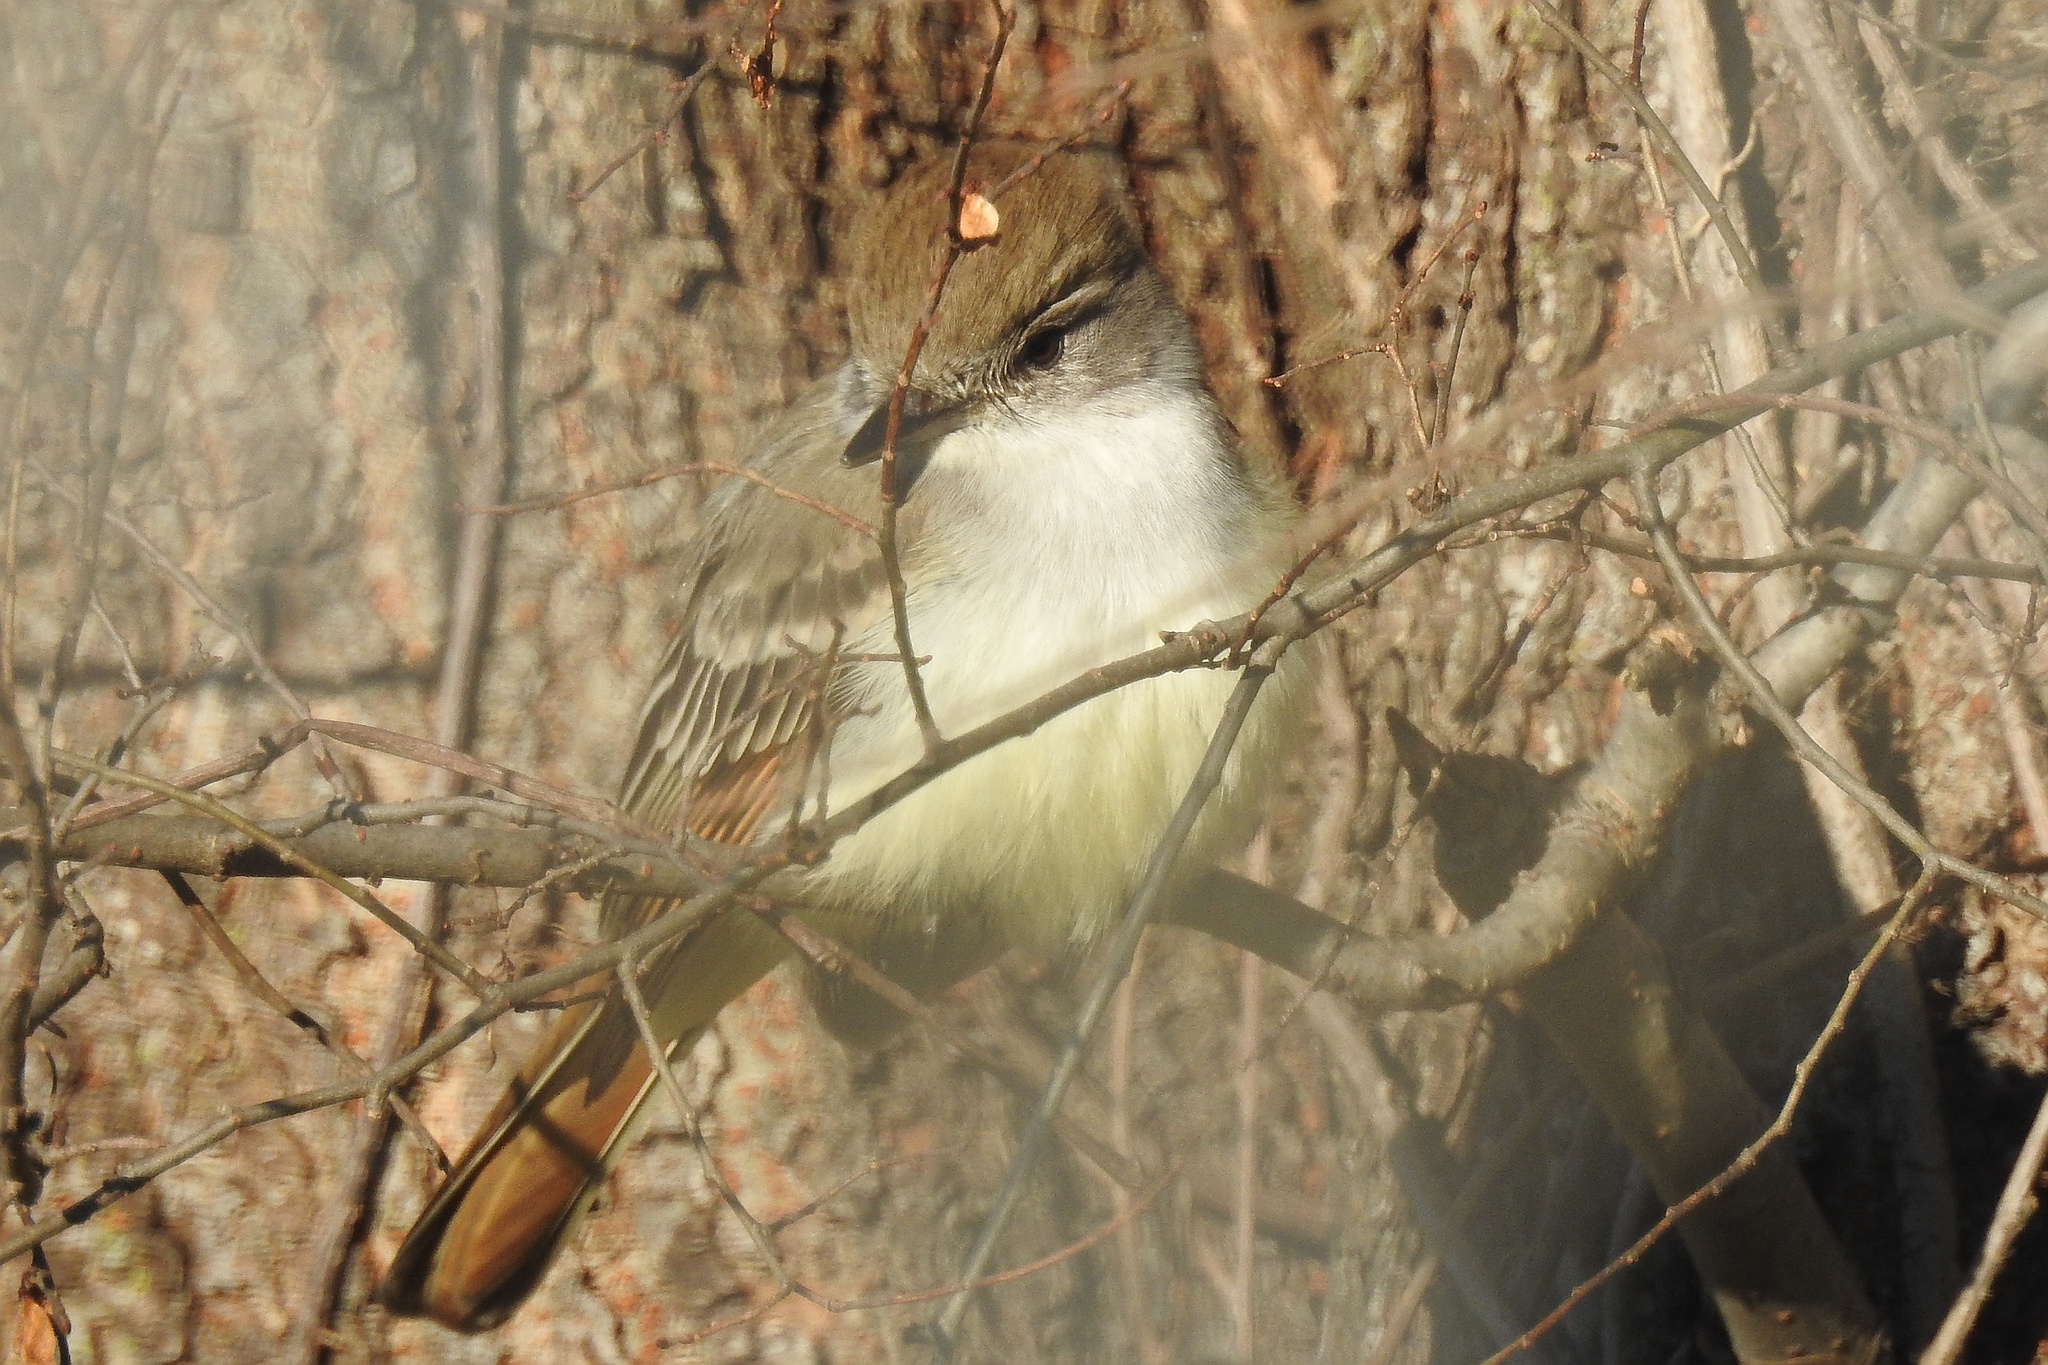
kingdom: Animalia
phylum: Chordata
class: Aves
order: Passeriformes
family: Tyrannidae
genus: Myiarchus
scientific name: Myiarchus cinerascens
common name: Ash-throated flycatcher
